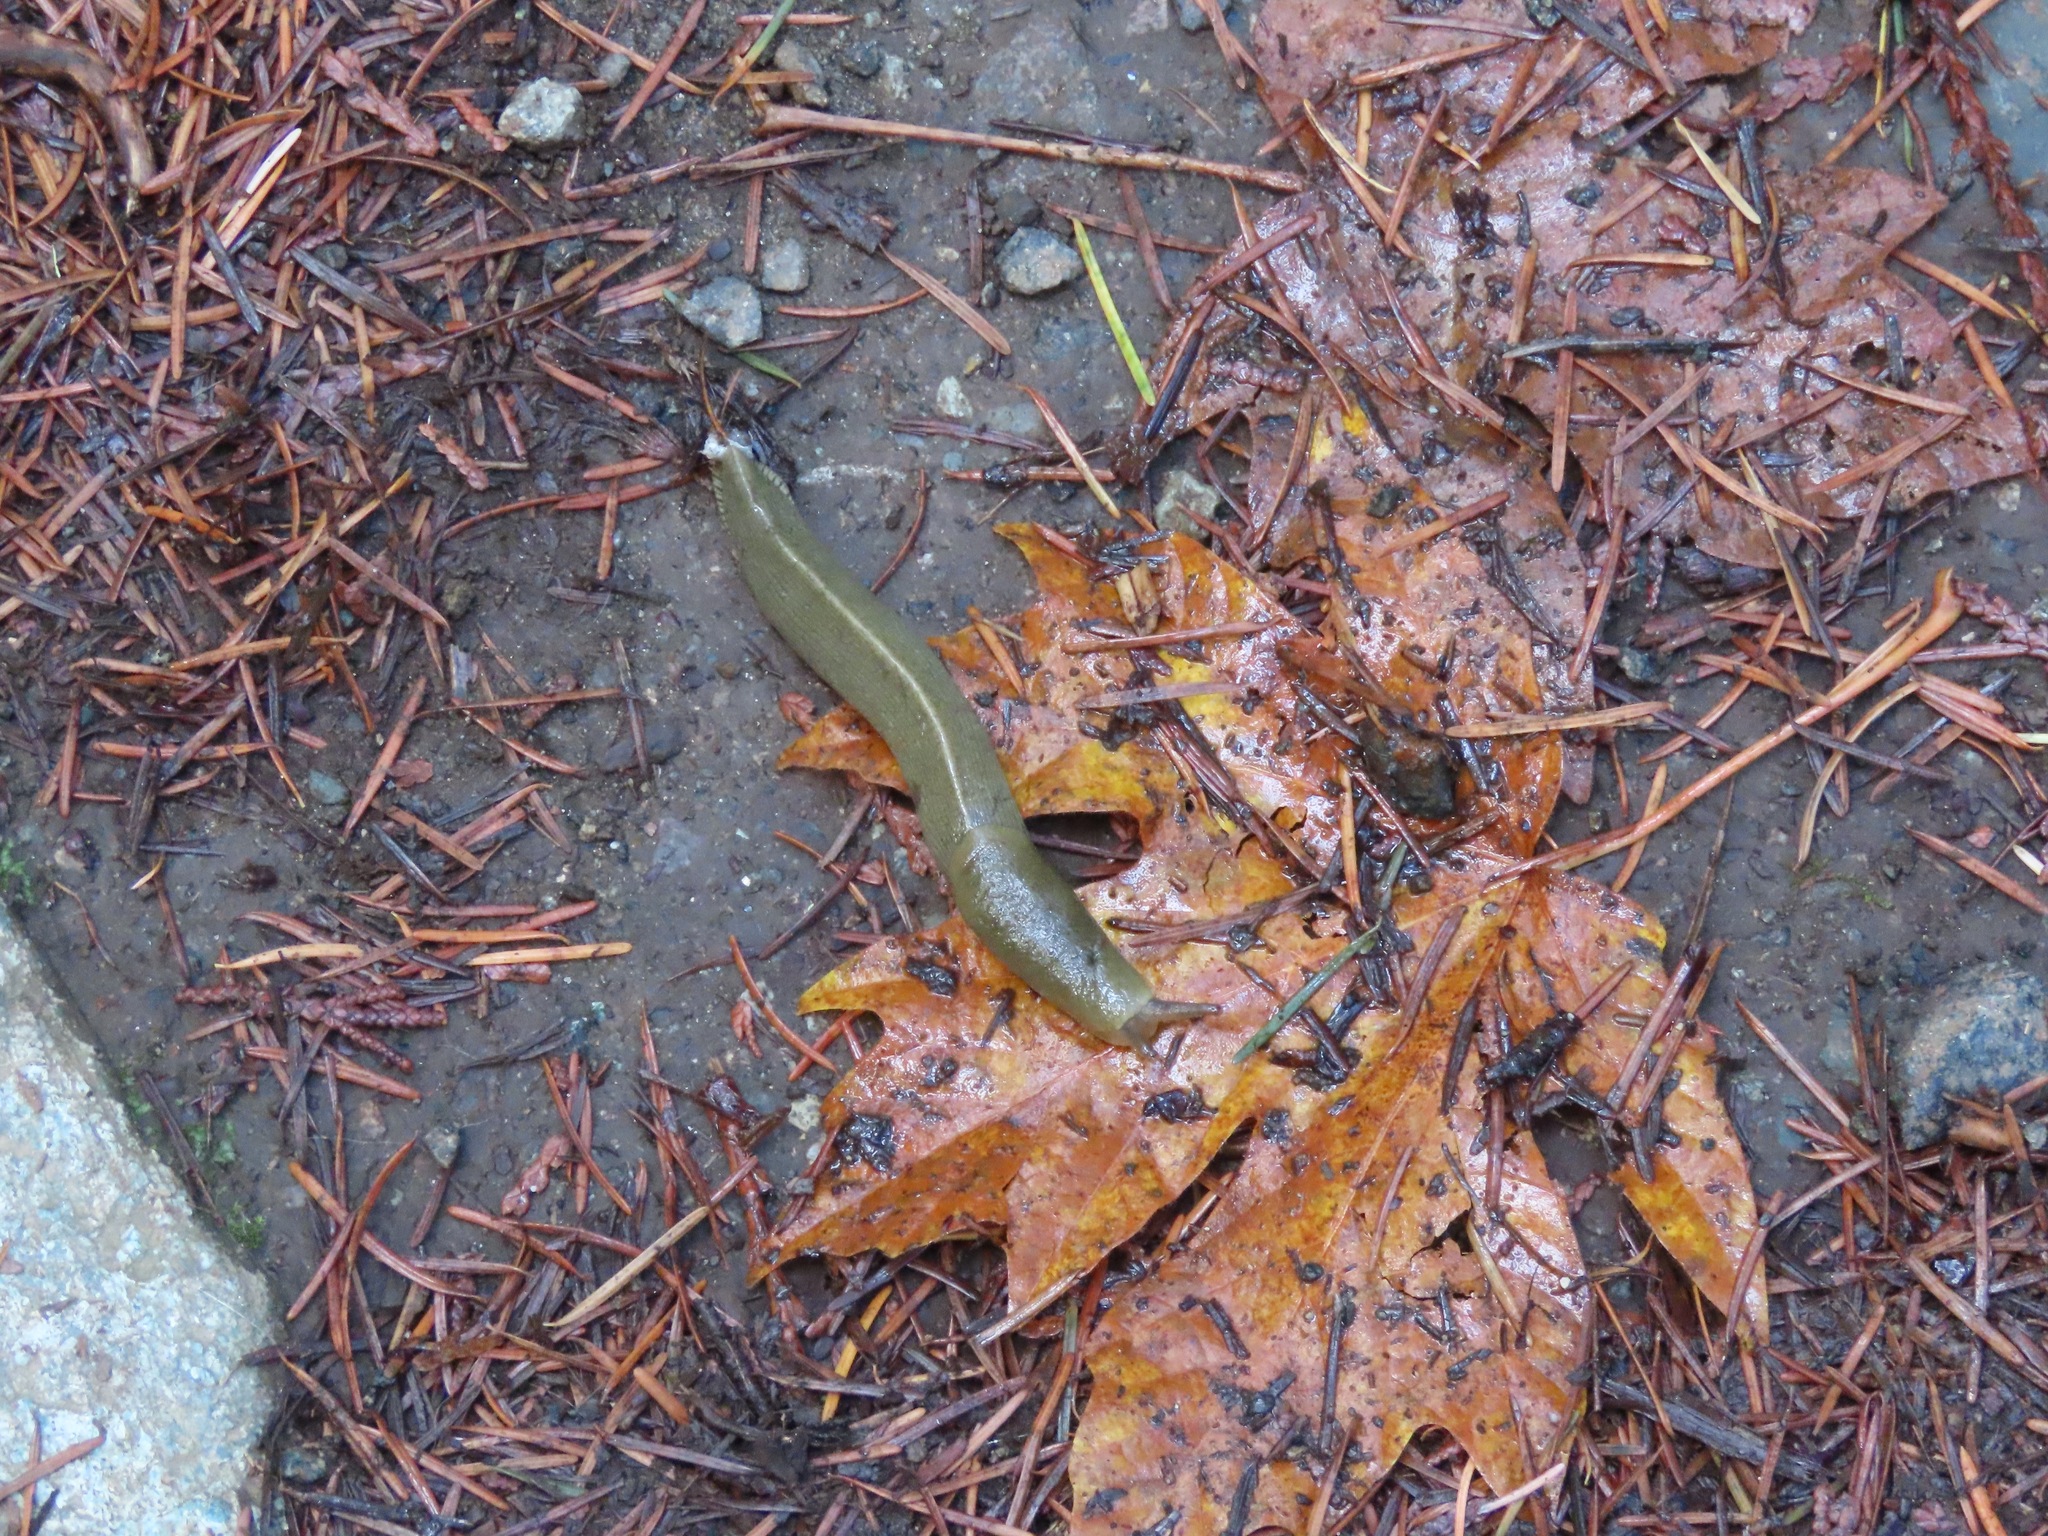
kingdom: Animalia
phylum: Mollusca
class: Gastropoda
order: Stylommatophora
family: Ariolimacidae
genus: Ariolimax
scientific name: Ariolimax columbianus
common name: Pacific banana slug
